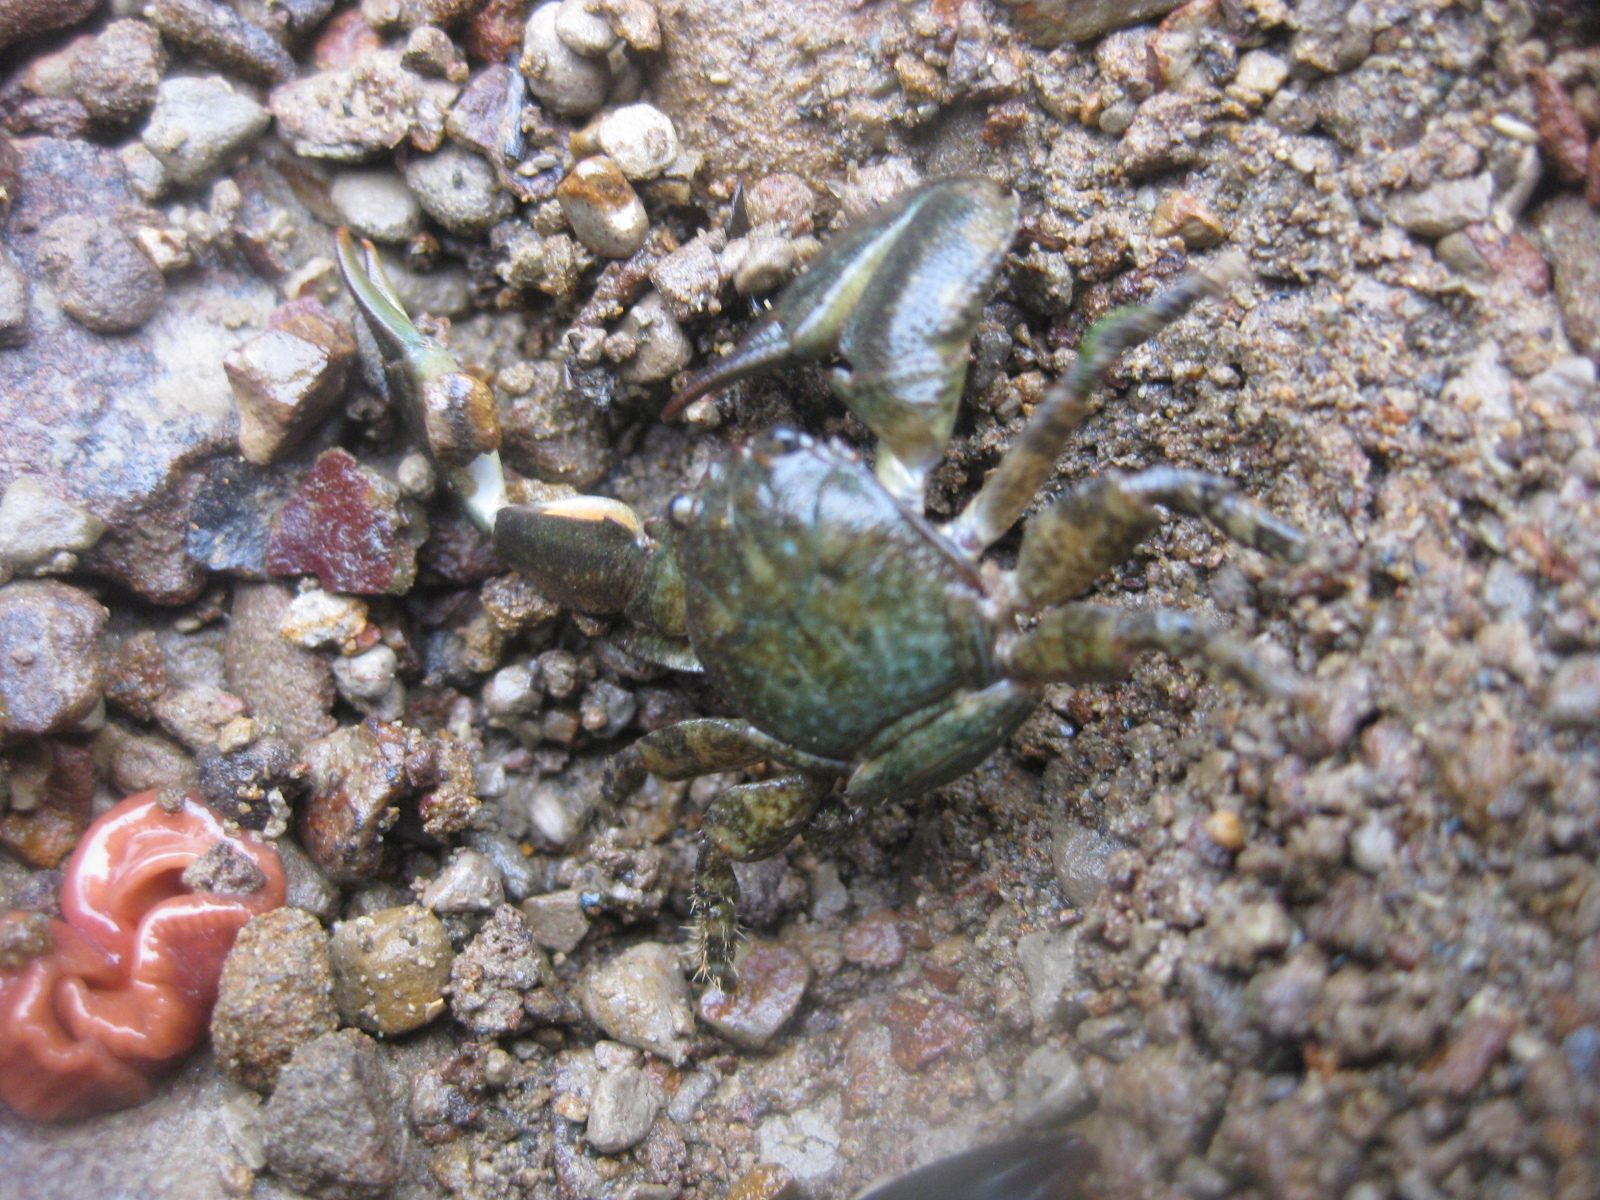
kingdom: Animalia
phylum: Arthropoda
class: Malacostraca
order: Decapoda
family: Porcellanidae
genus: Petrolisthes
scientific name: Petrolisthes elongatus
